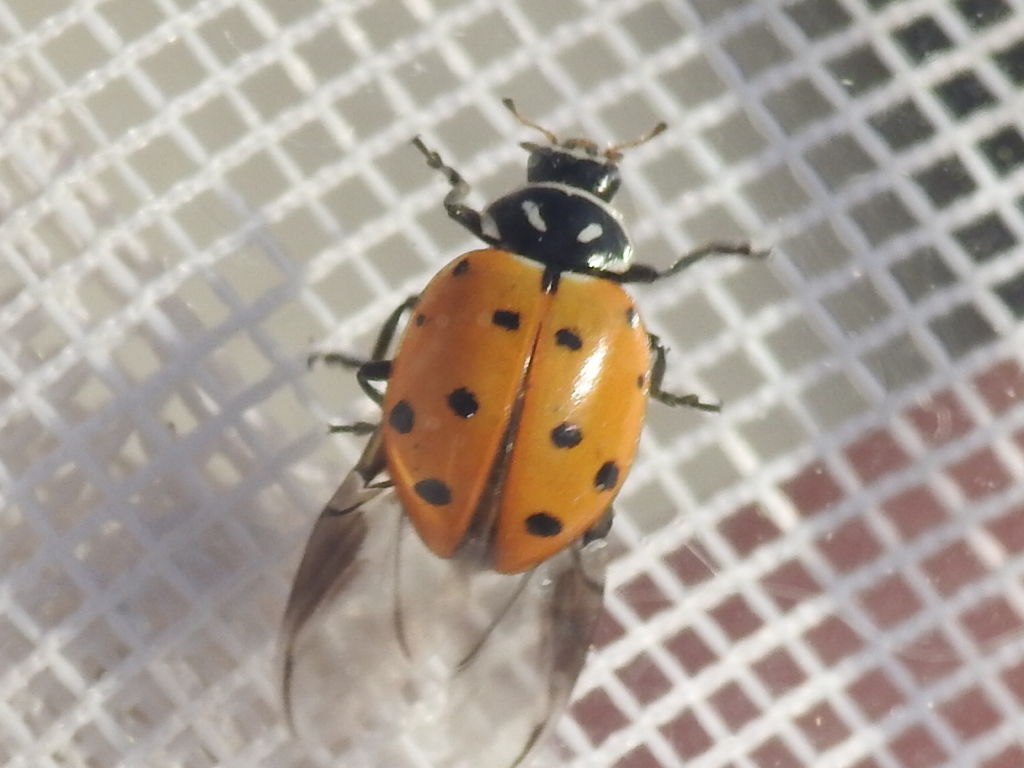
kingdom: Animalia
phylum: Arthropoda
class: Insecta
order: Coleoptera
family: Coccinellidae
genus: Hippodamia
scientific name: Hippodamia convergens
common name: Convergent lady beetle
